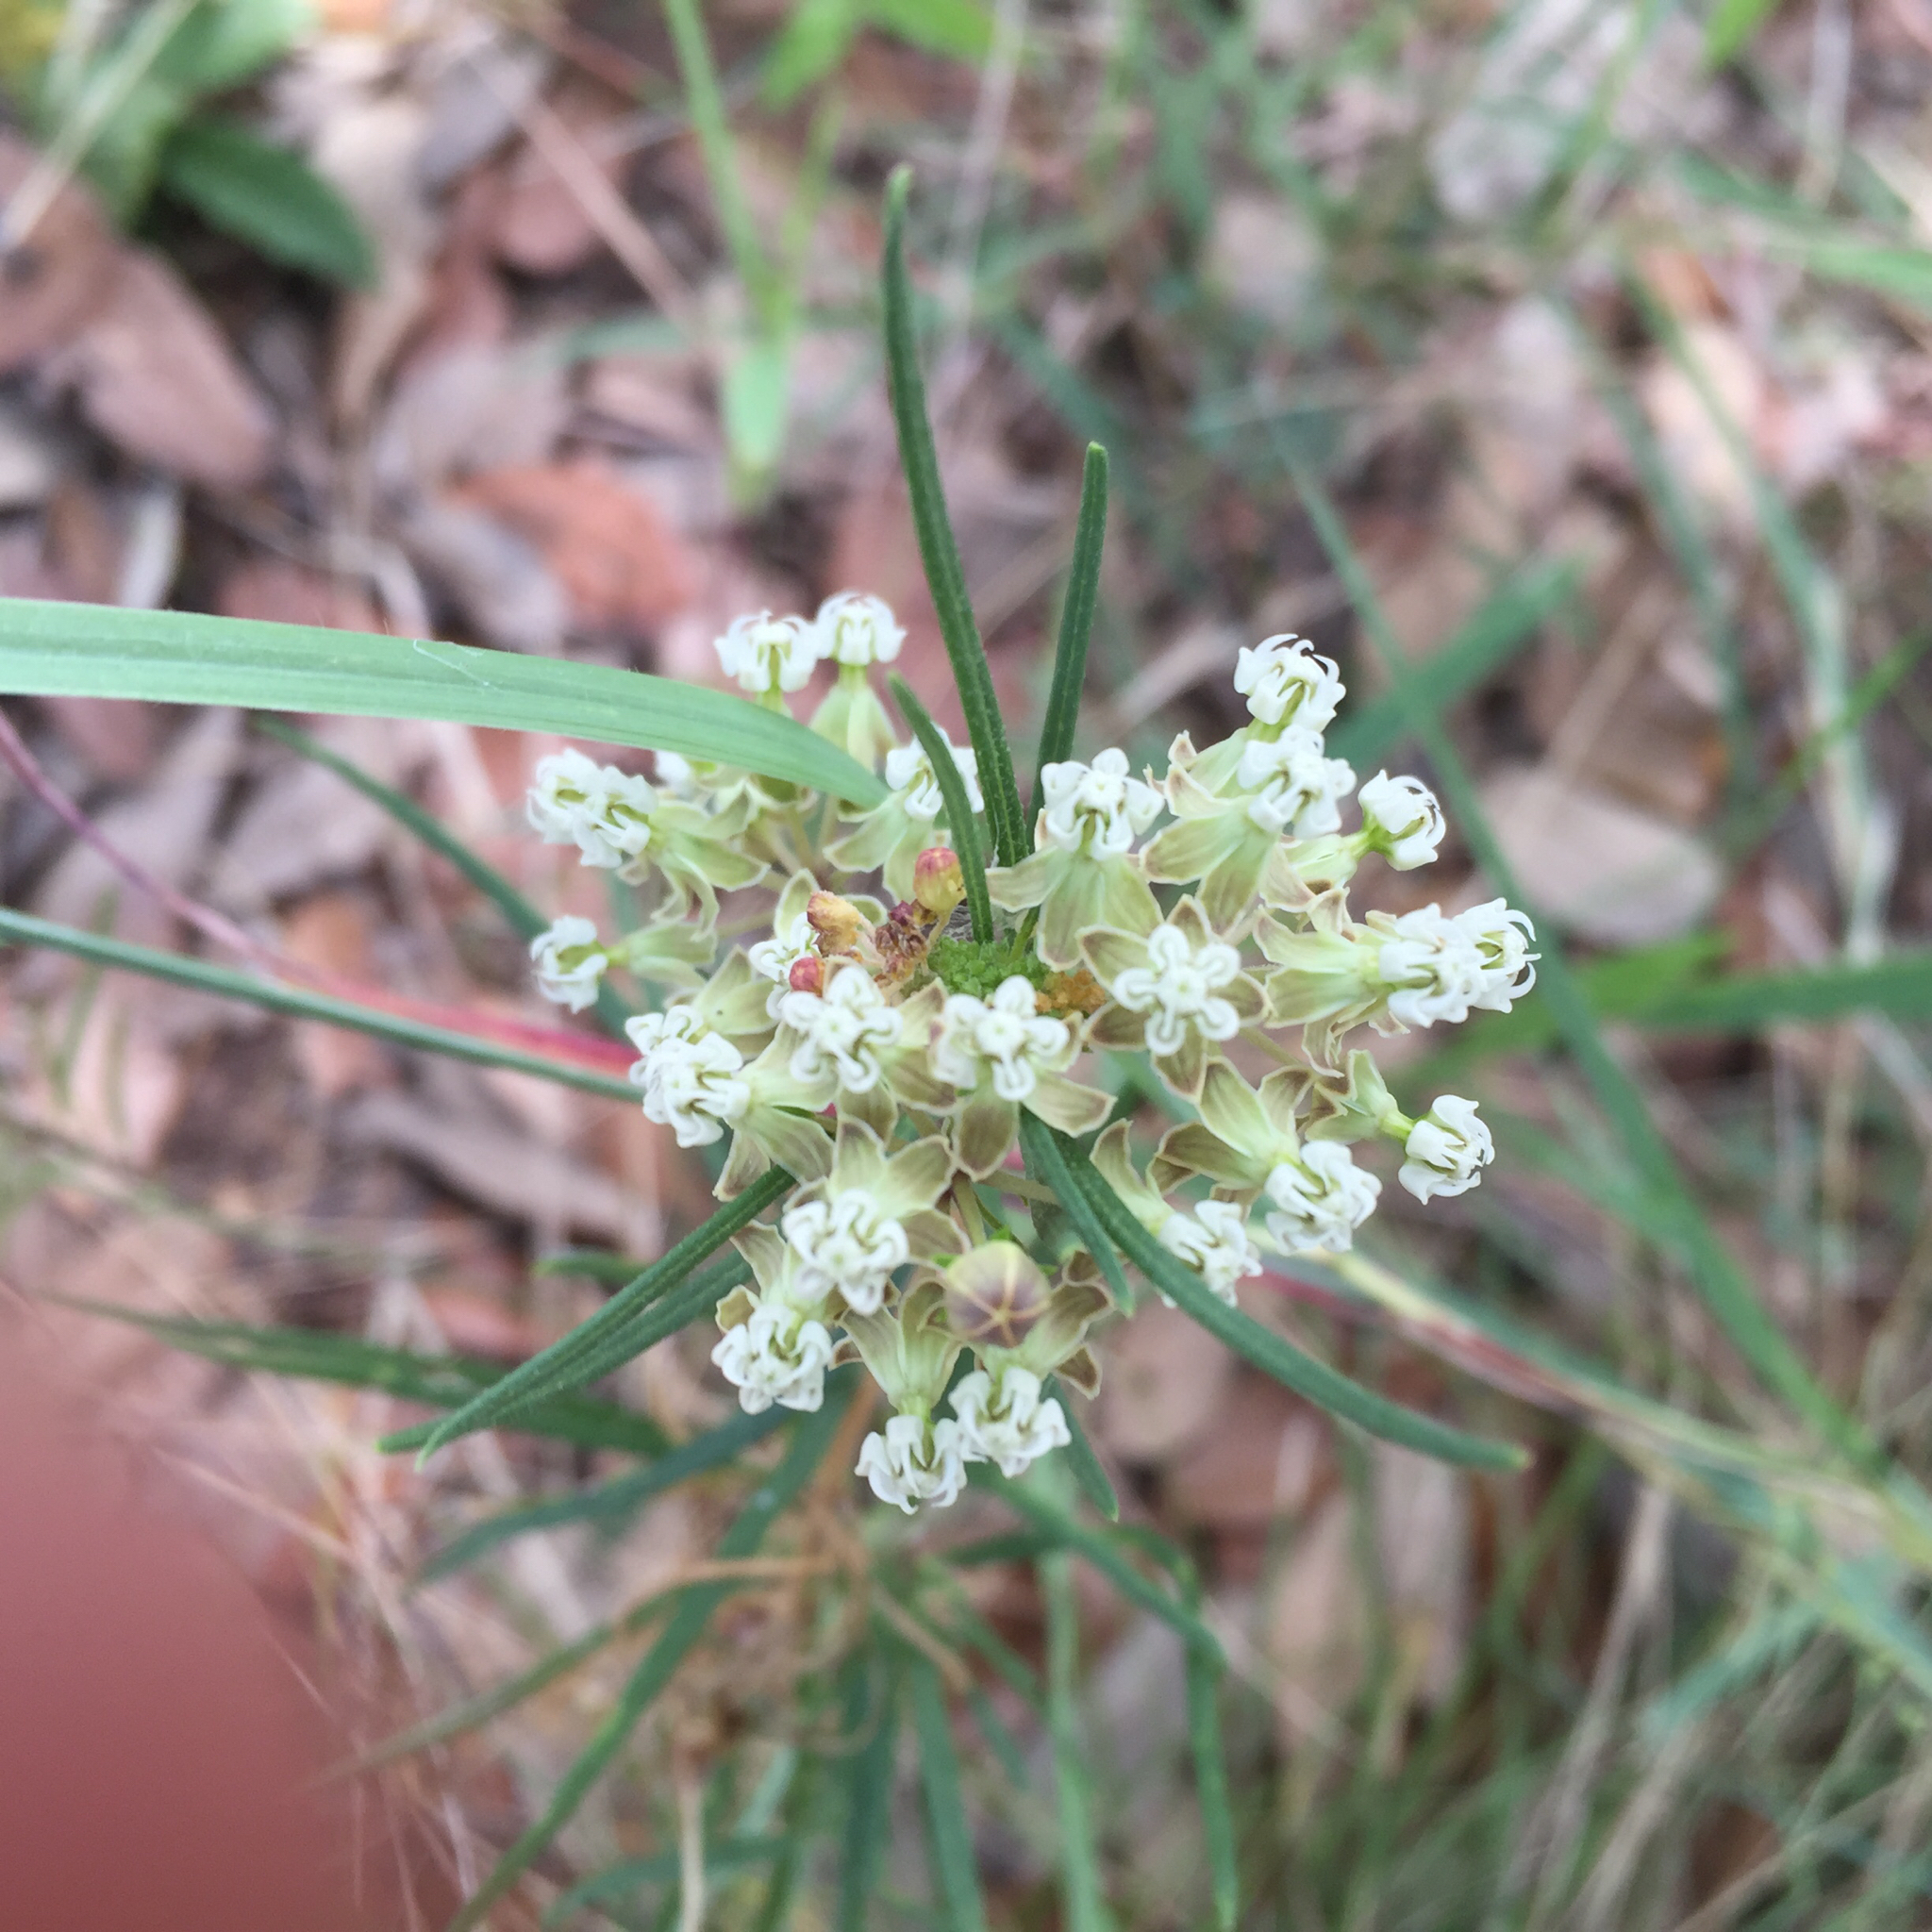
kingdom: Plantae
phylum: Tracheophyta
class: Magnoliopsida
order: Gentianales
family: Apocynaceae
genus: Asclepias
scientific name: Asclepias verticillata
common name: Eastern whorled milkweed
